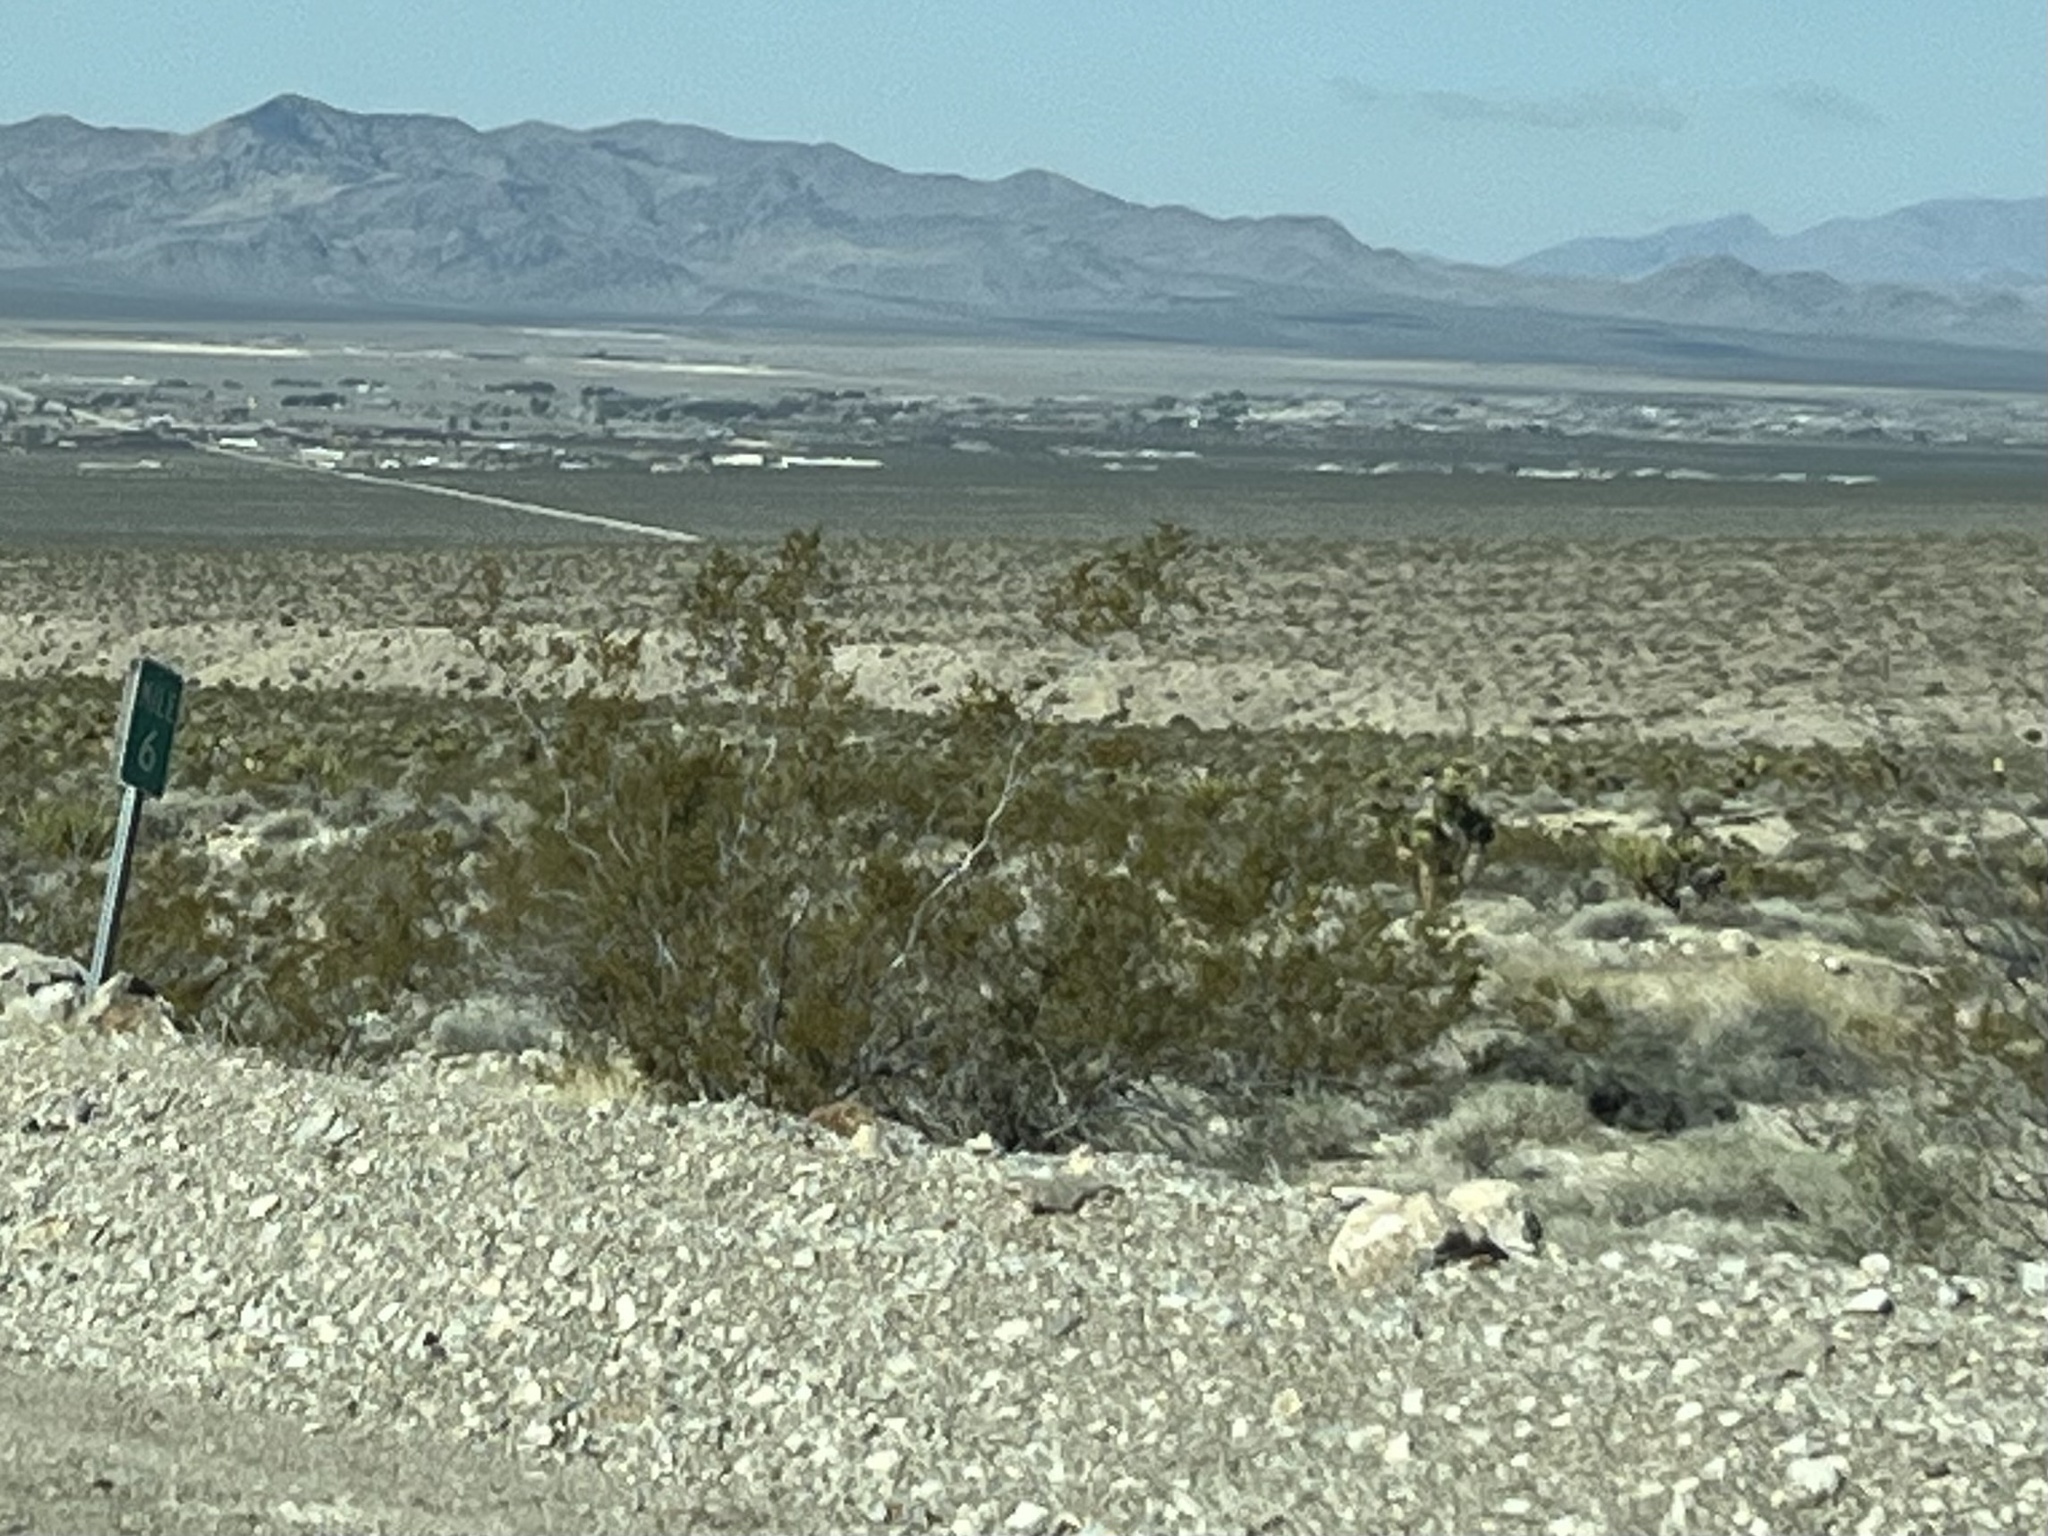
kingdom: Plantae
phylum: Tracheophyta
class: Magnoliopsida
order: Zygophyllales
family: Zygophyllaceae
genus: Larrea
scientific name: Larrea tridentata
